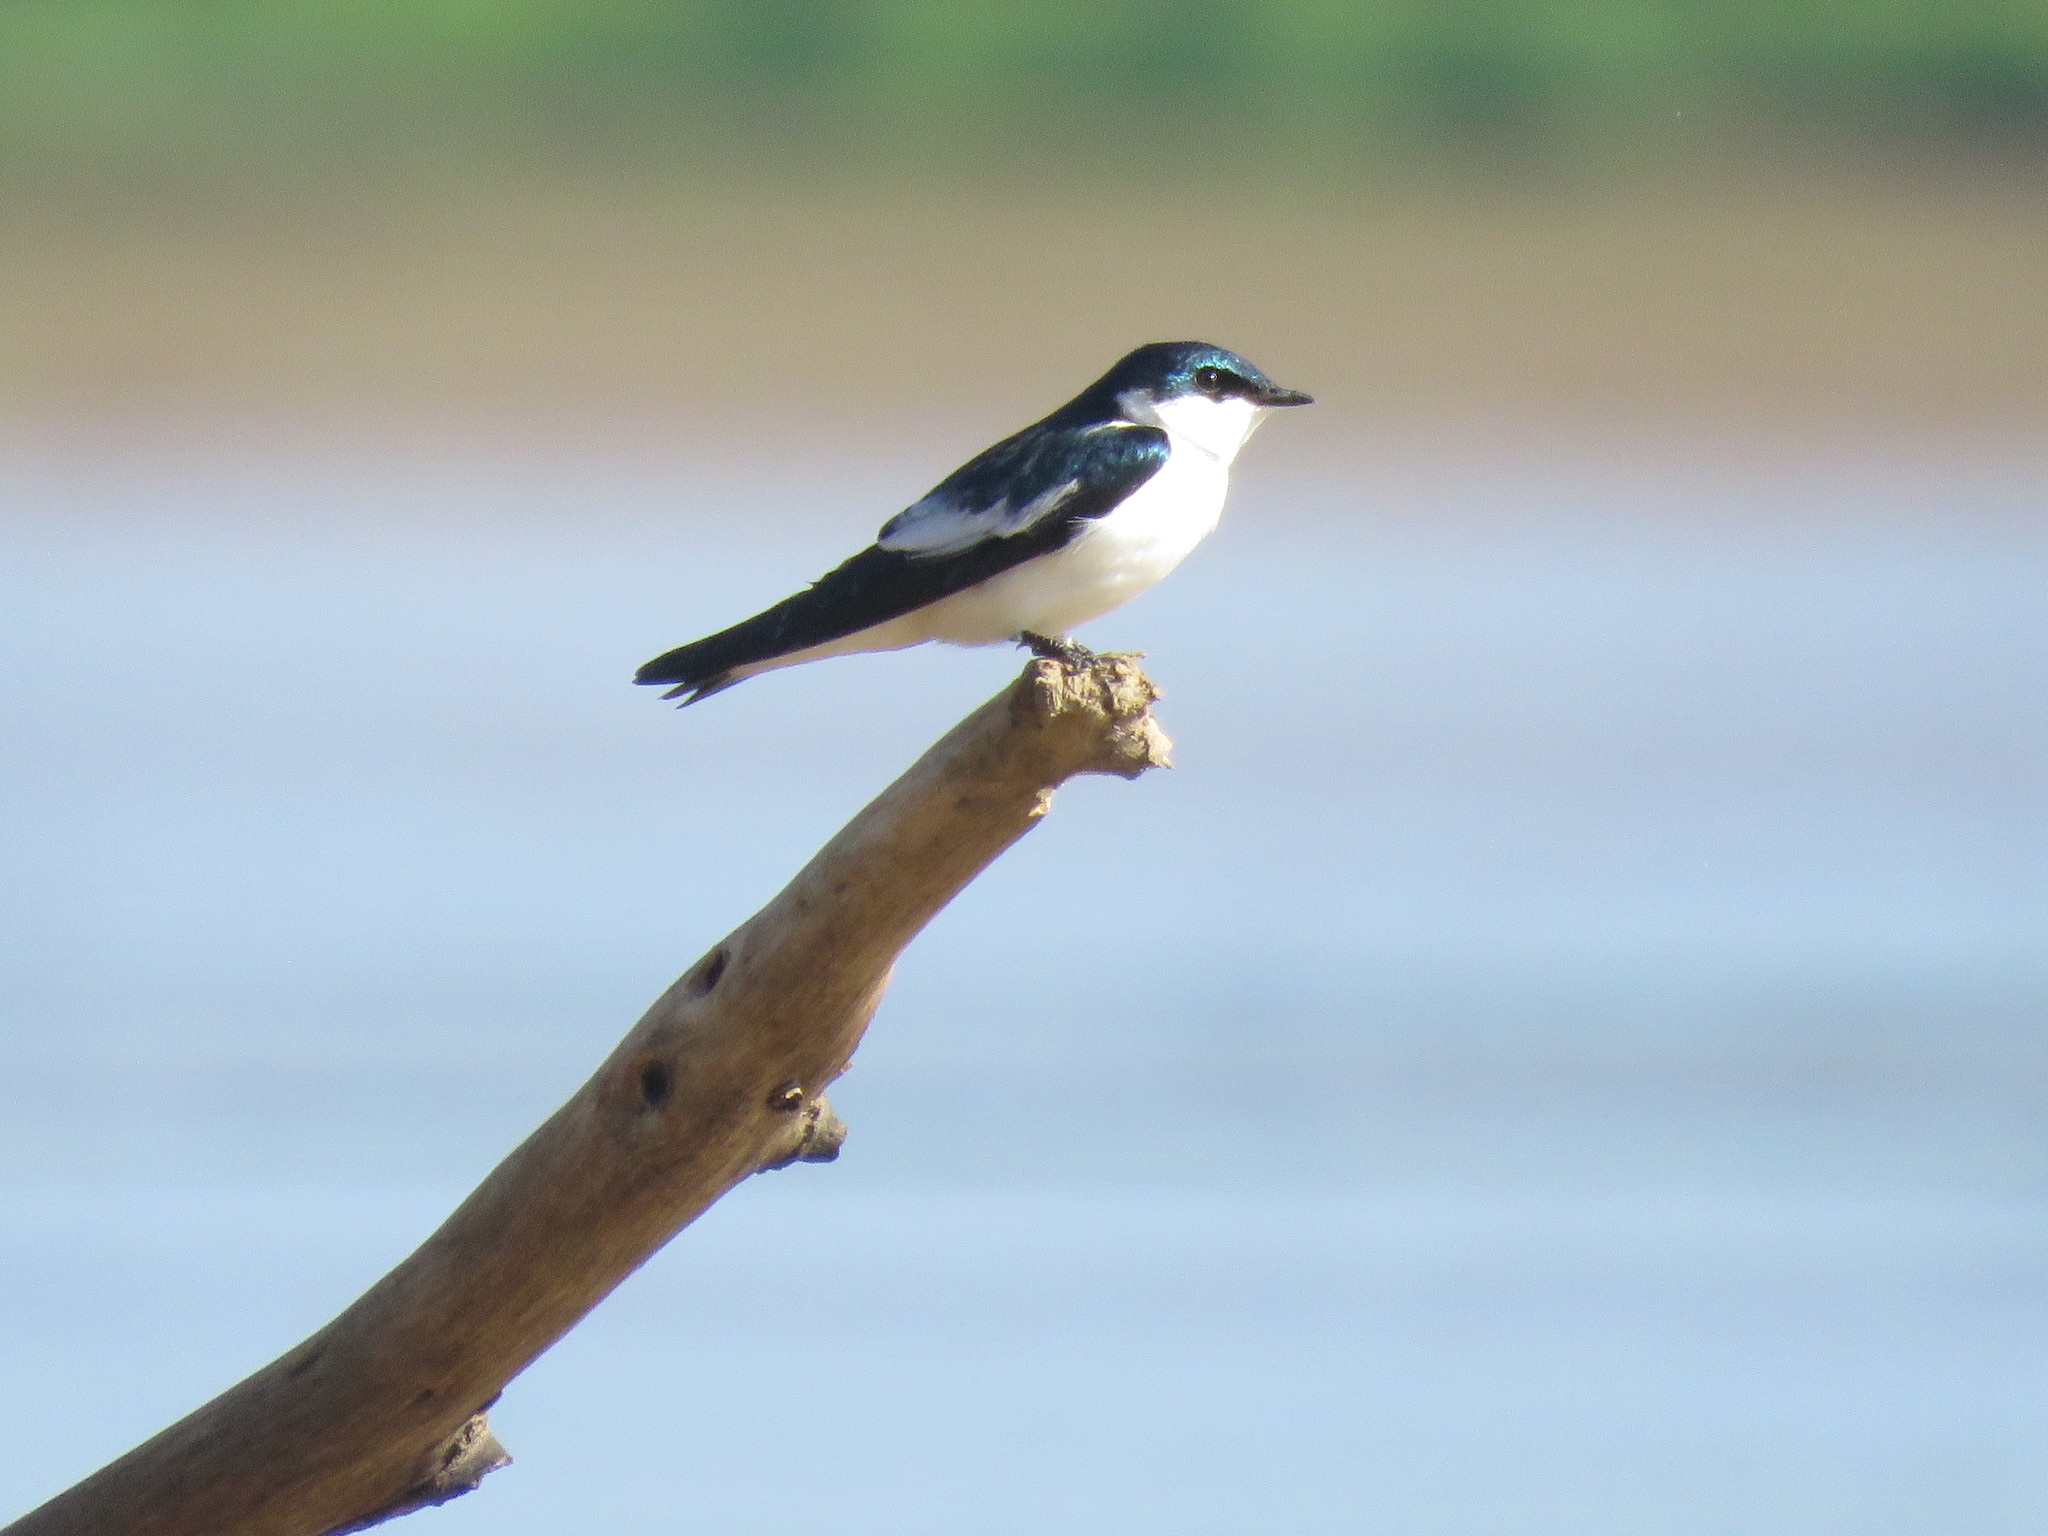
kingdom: Animalia
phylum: Chordata
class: Aves
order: Passeriformes
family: Hirundinidae
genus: Tachycineta
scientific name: Tachycineta albiventer
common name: White-winged swallow
